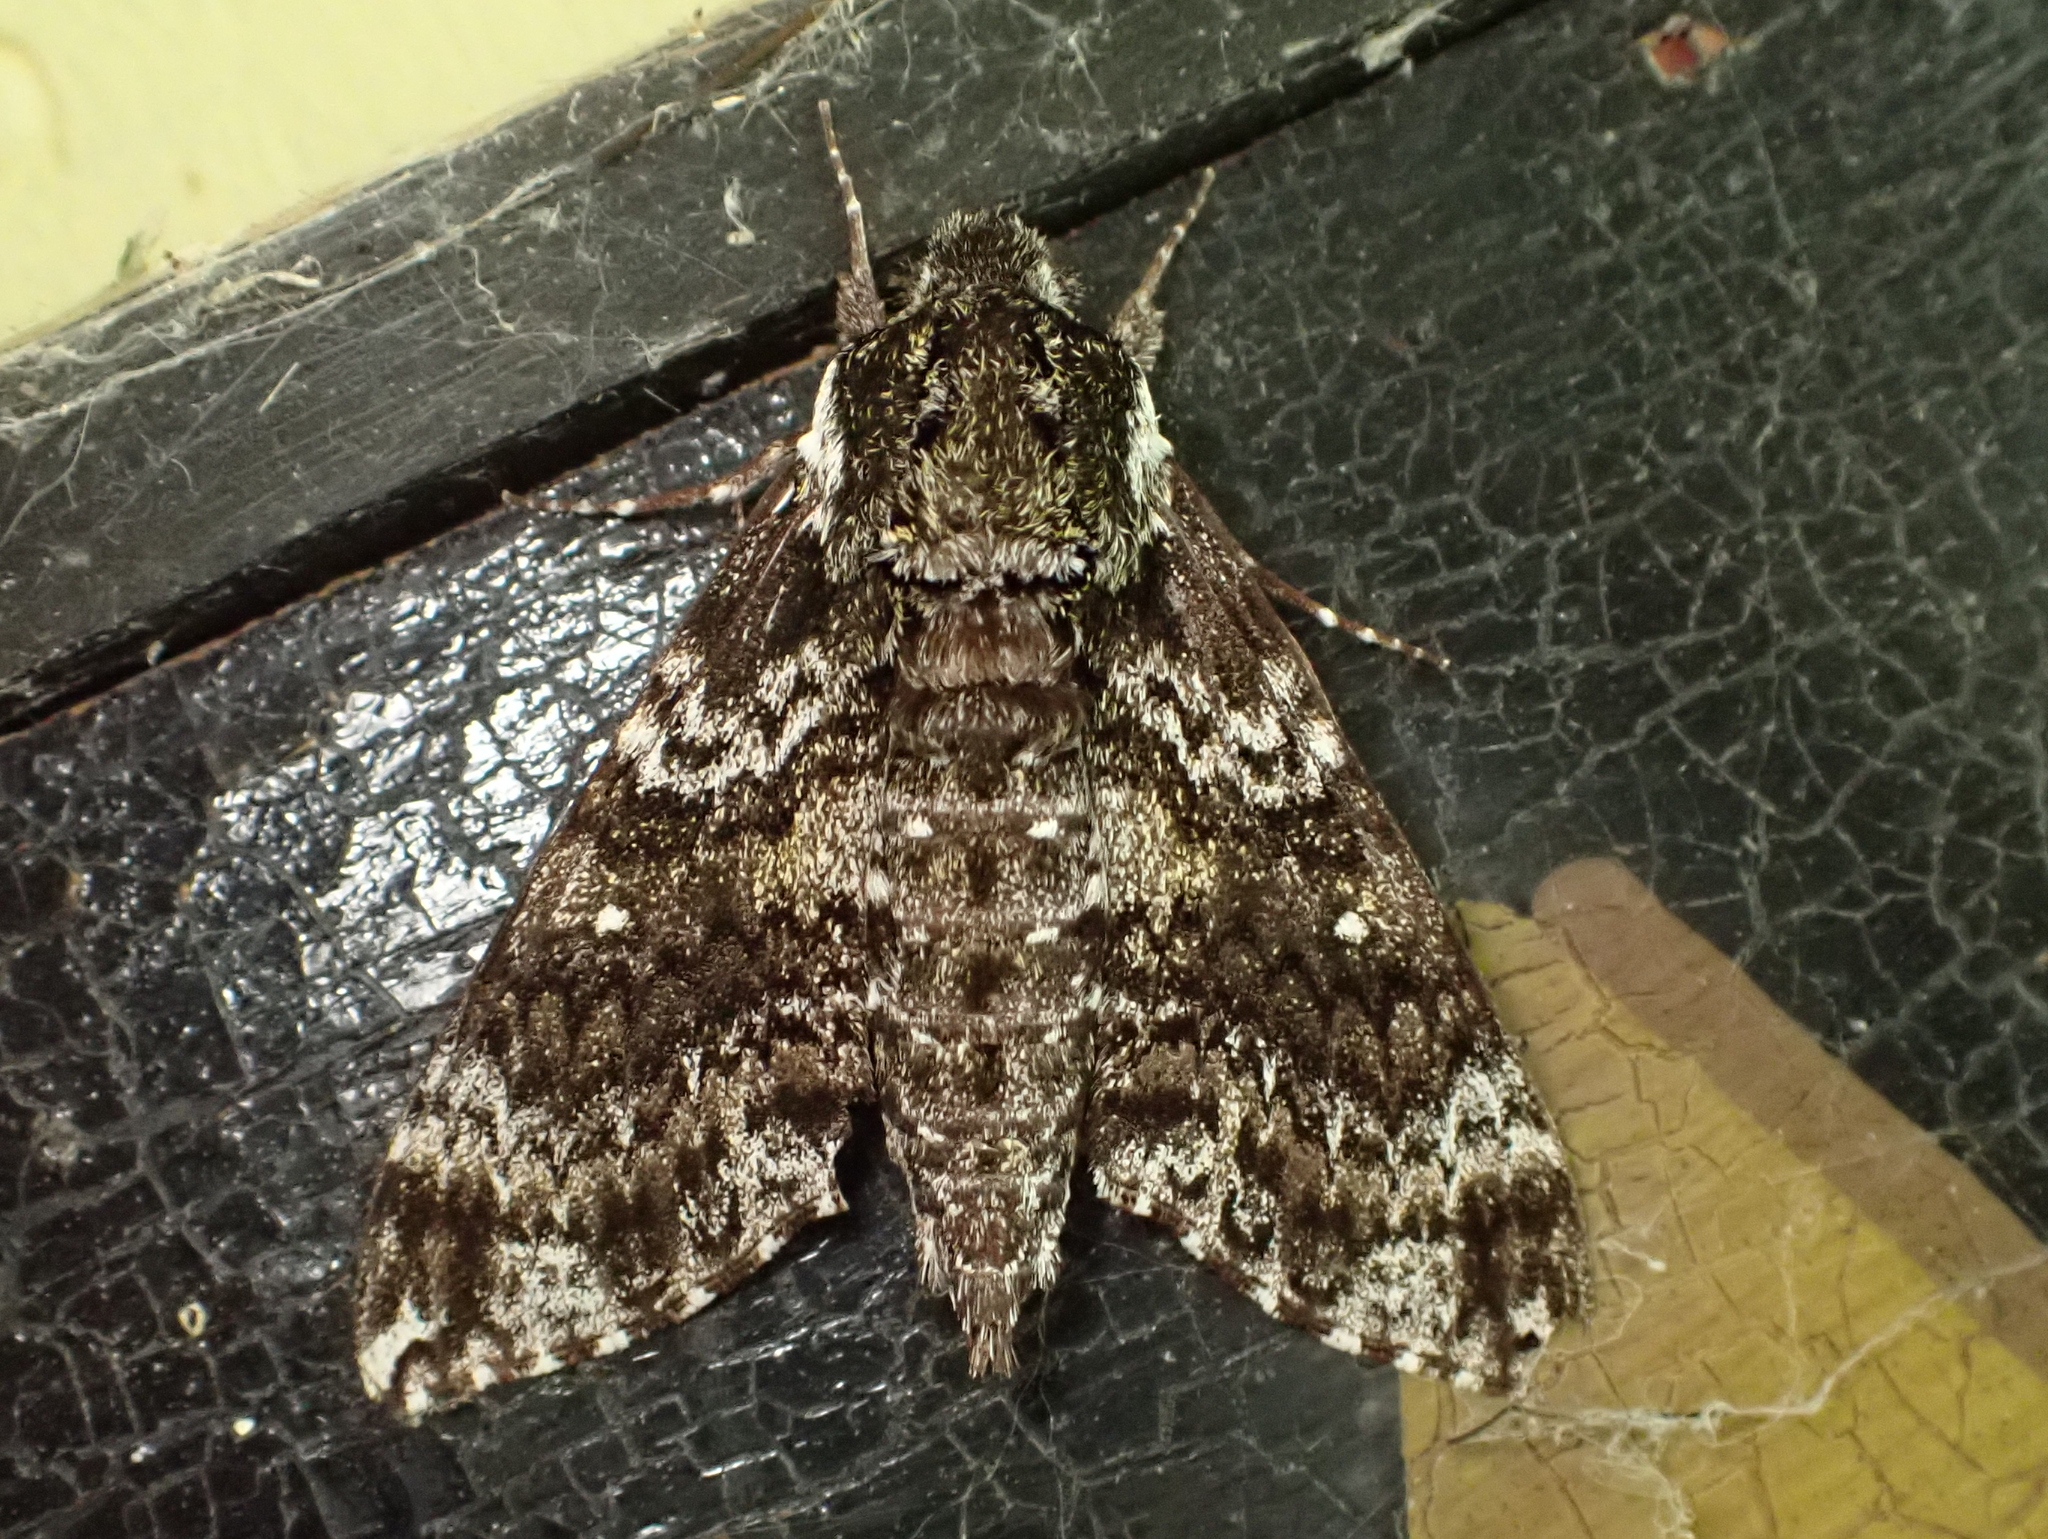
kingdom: Animalia
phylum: Arthropoda
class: Insecta
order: Lepidoptera
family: Sphingidae
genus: Dolba
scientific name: Dolba hyloeus
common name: Pawpaw sphinx
